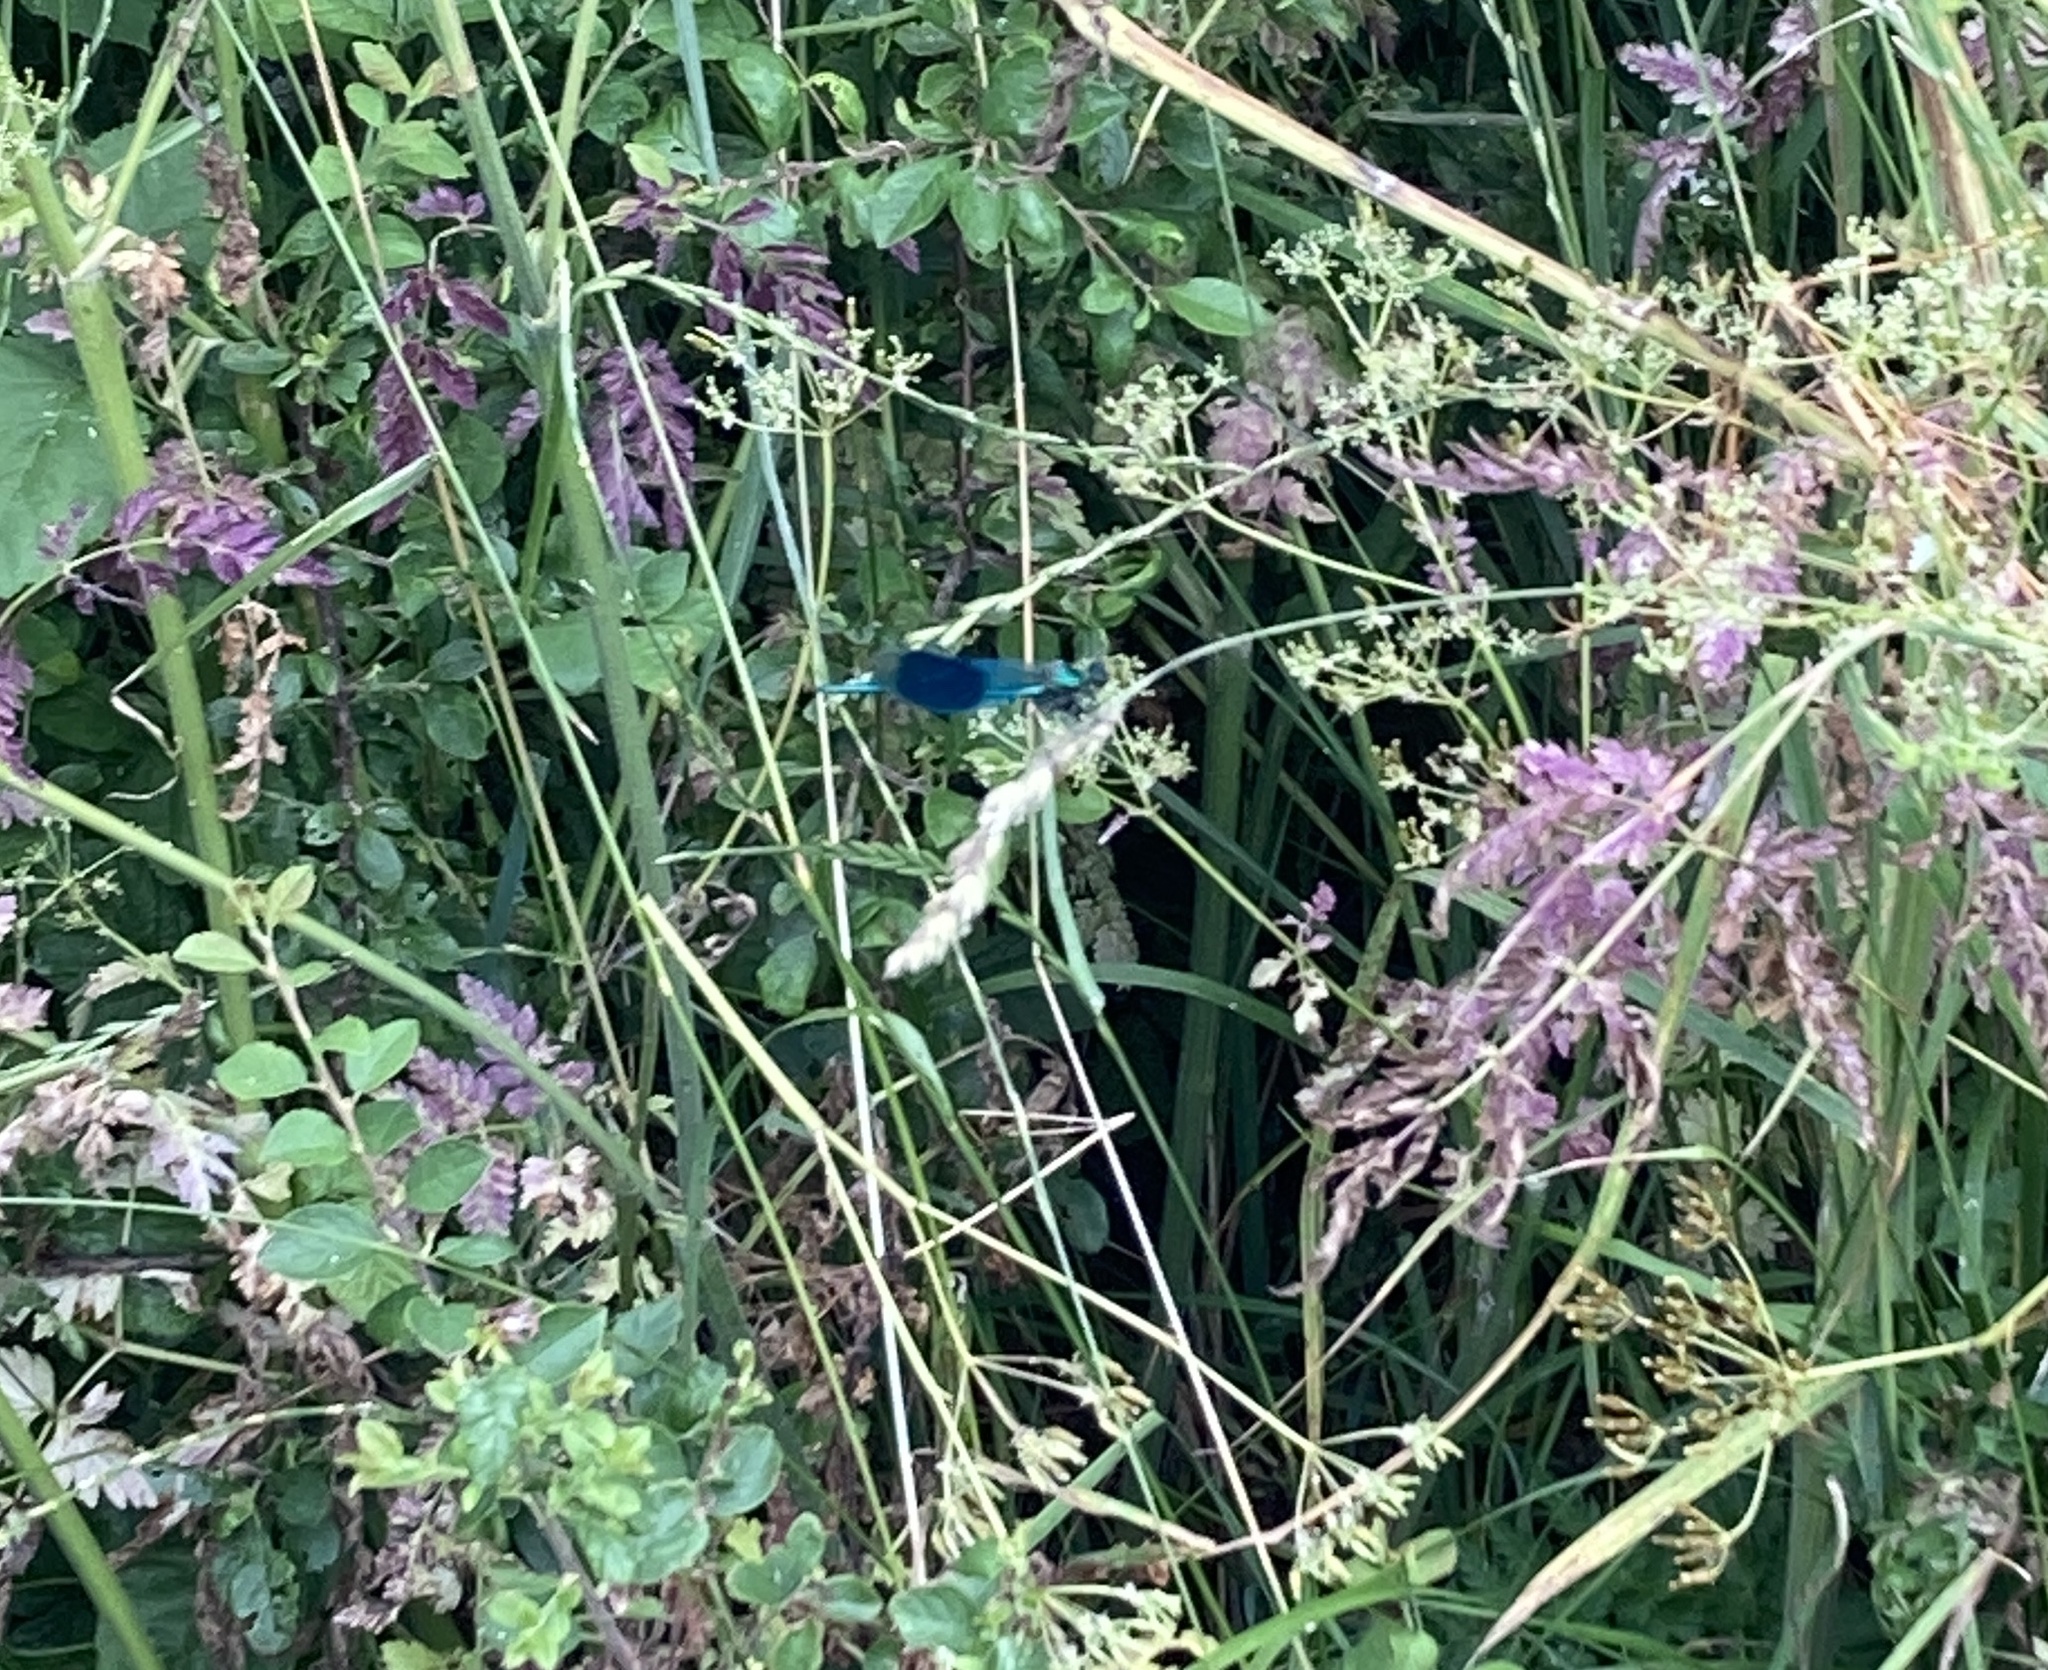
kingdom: Animalia
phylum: Arthropoda
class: Insecta
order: Odonata
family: Calopterygidae
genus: Calopteryx
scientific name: Calopteryx splendens
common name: Banded demoiselle
